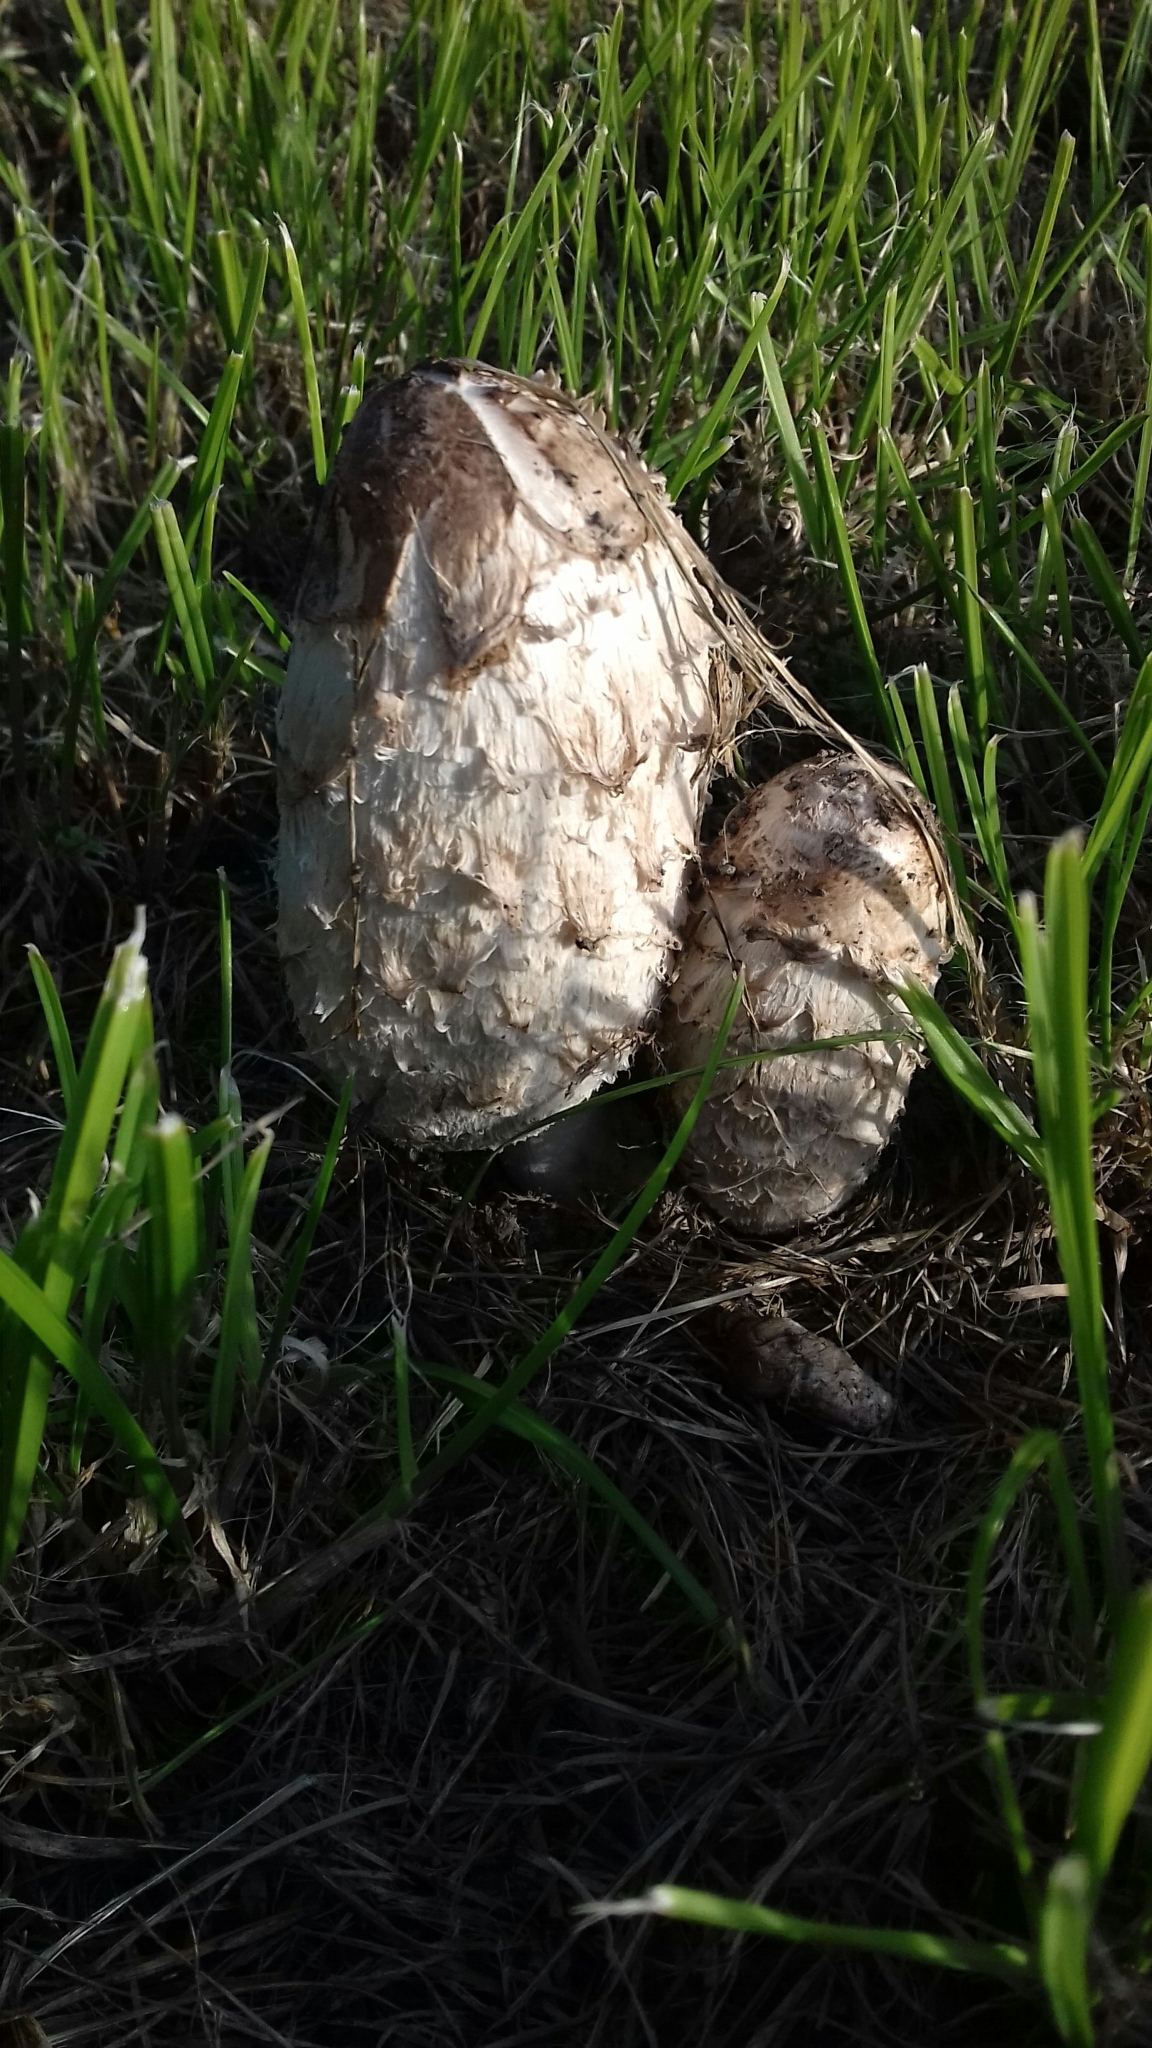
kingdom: Fungi
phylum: Basidiomycota
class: Agaricomycetes
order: Agaricales
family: Agaricaceae
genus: Coprinus
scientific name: Coprinus comatus
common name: Lawyer's wig
